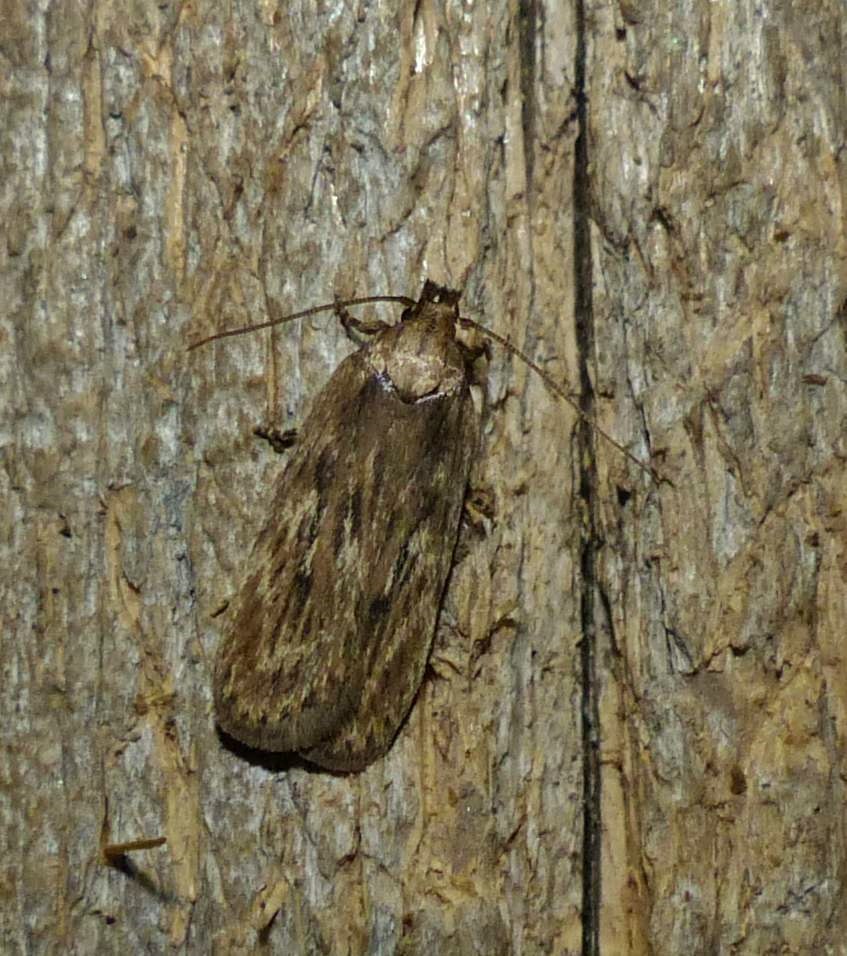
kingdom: Animalia
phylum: Arthropoda
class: Insecta
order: Lepidoptera
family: Depressariidae
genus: Depressaria
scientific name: Depressaria radiella
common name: Parsnip moth
